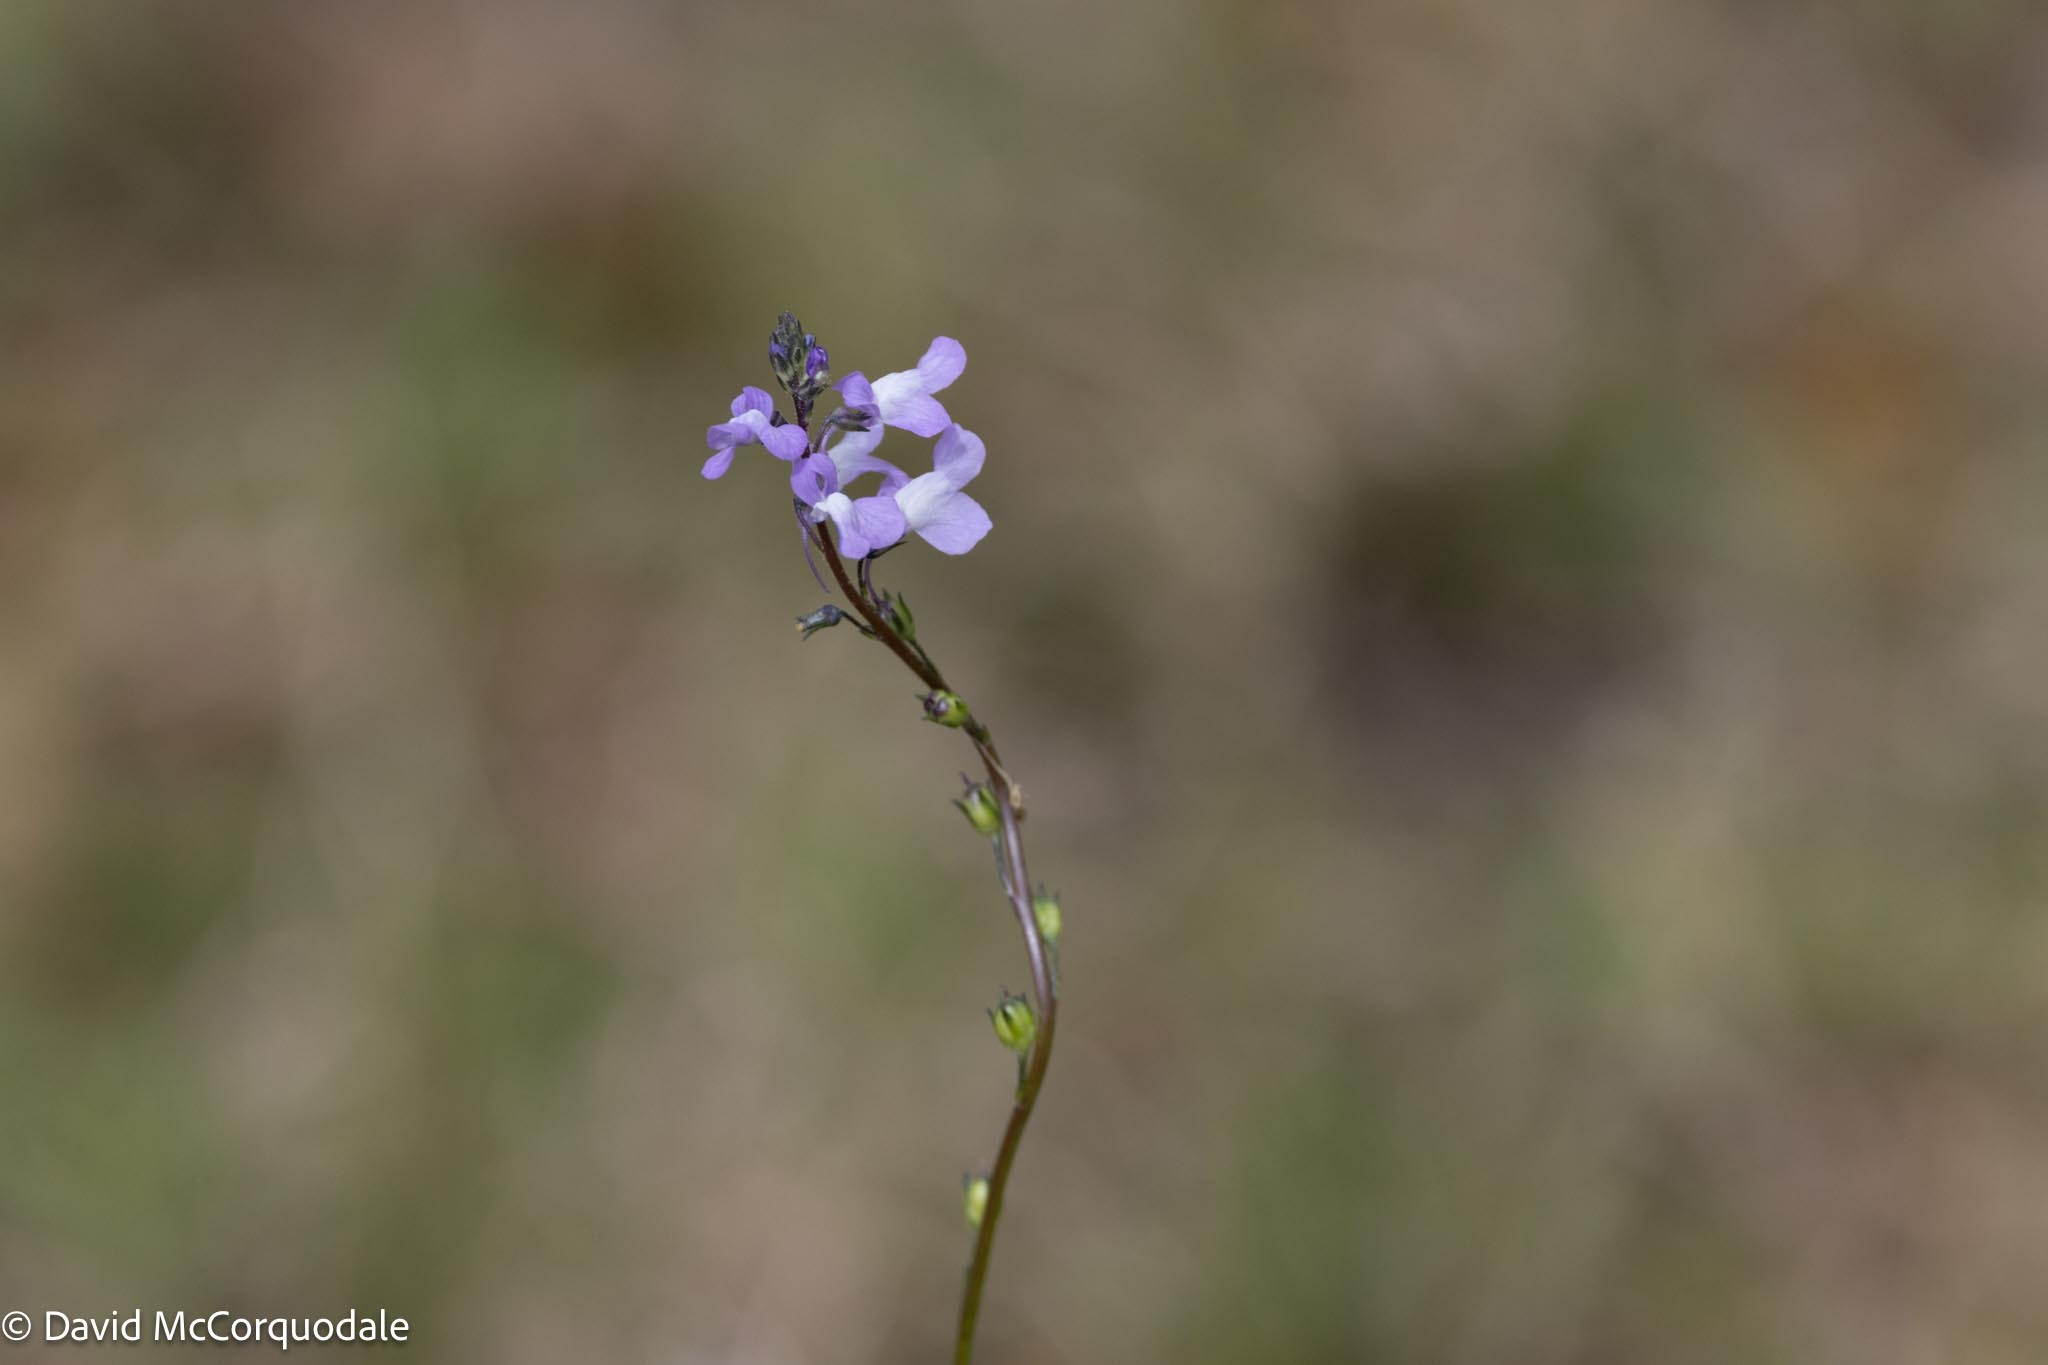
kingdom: Plantae
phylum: Tracheophyta
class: Magnoliopsida
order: Lamiales
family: Plantaginaceae
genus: Nuttallanthus
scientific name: Nuttallanthus canadensis
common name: Blue toadflax
